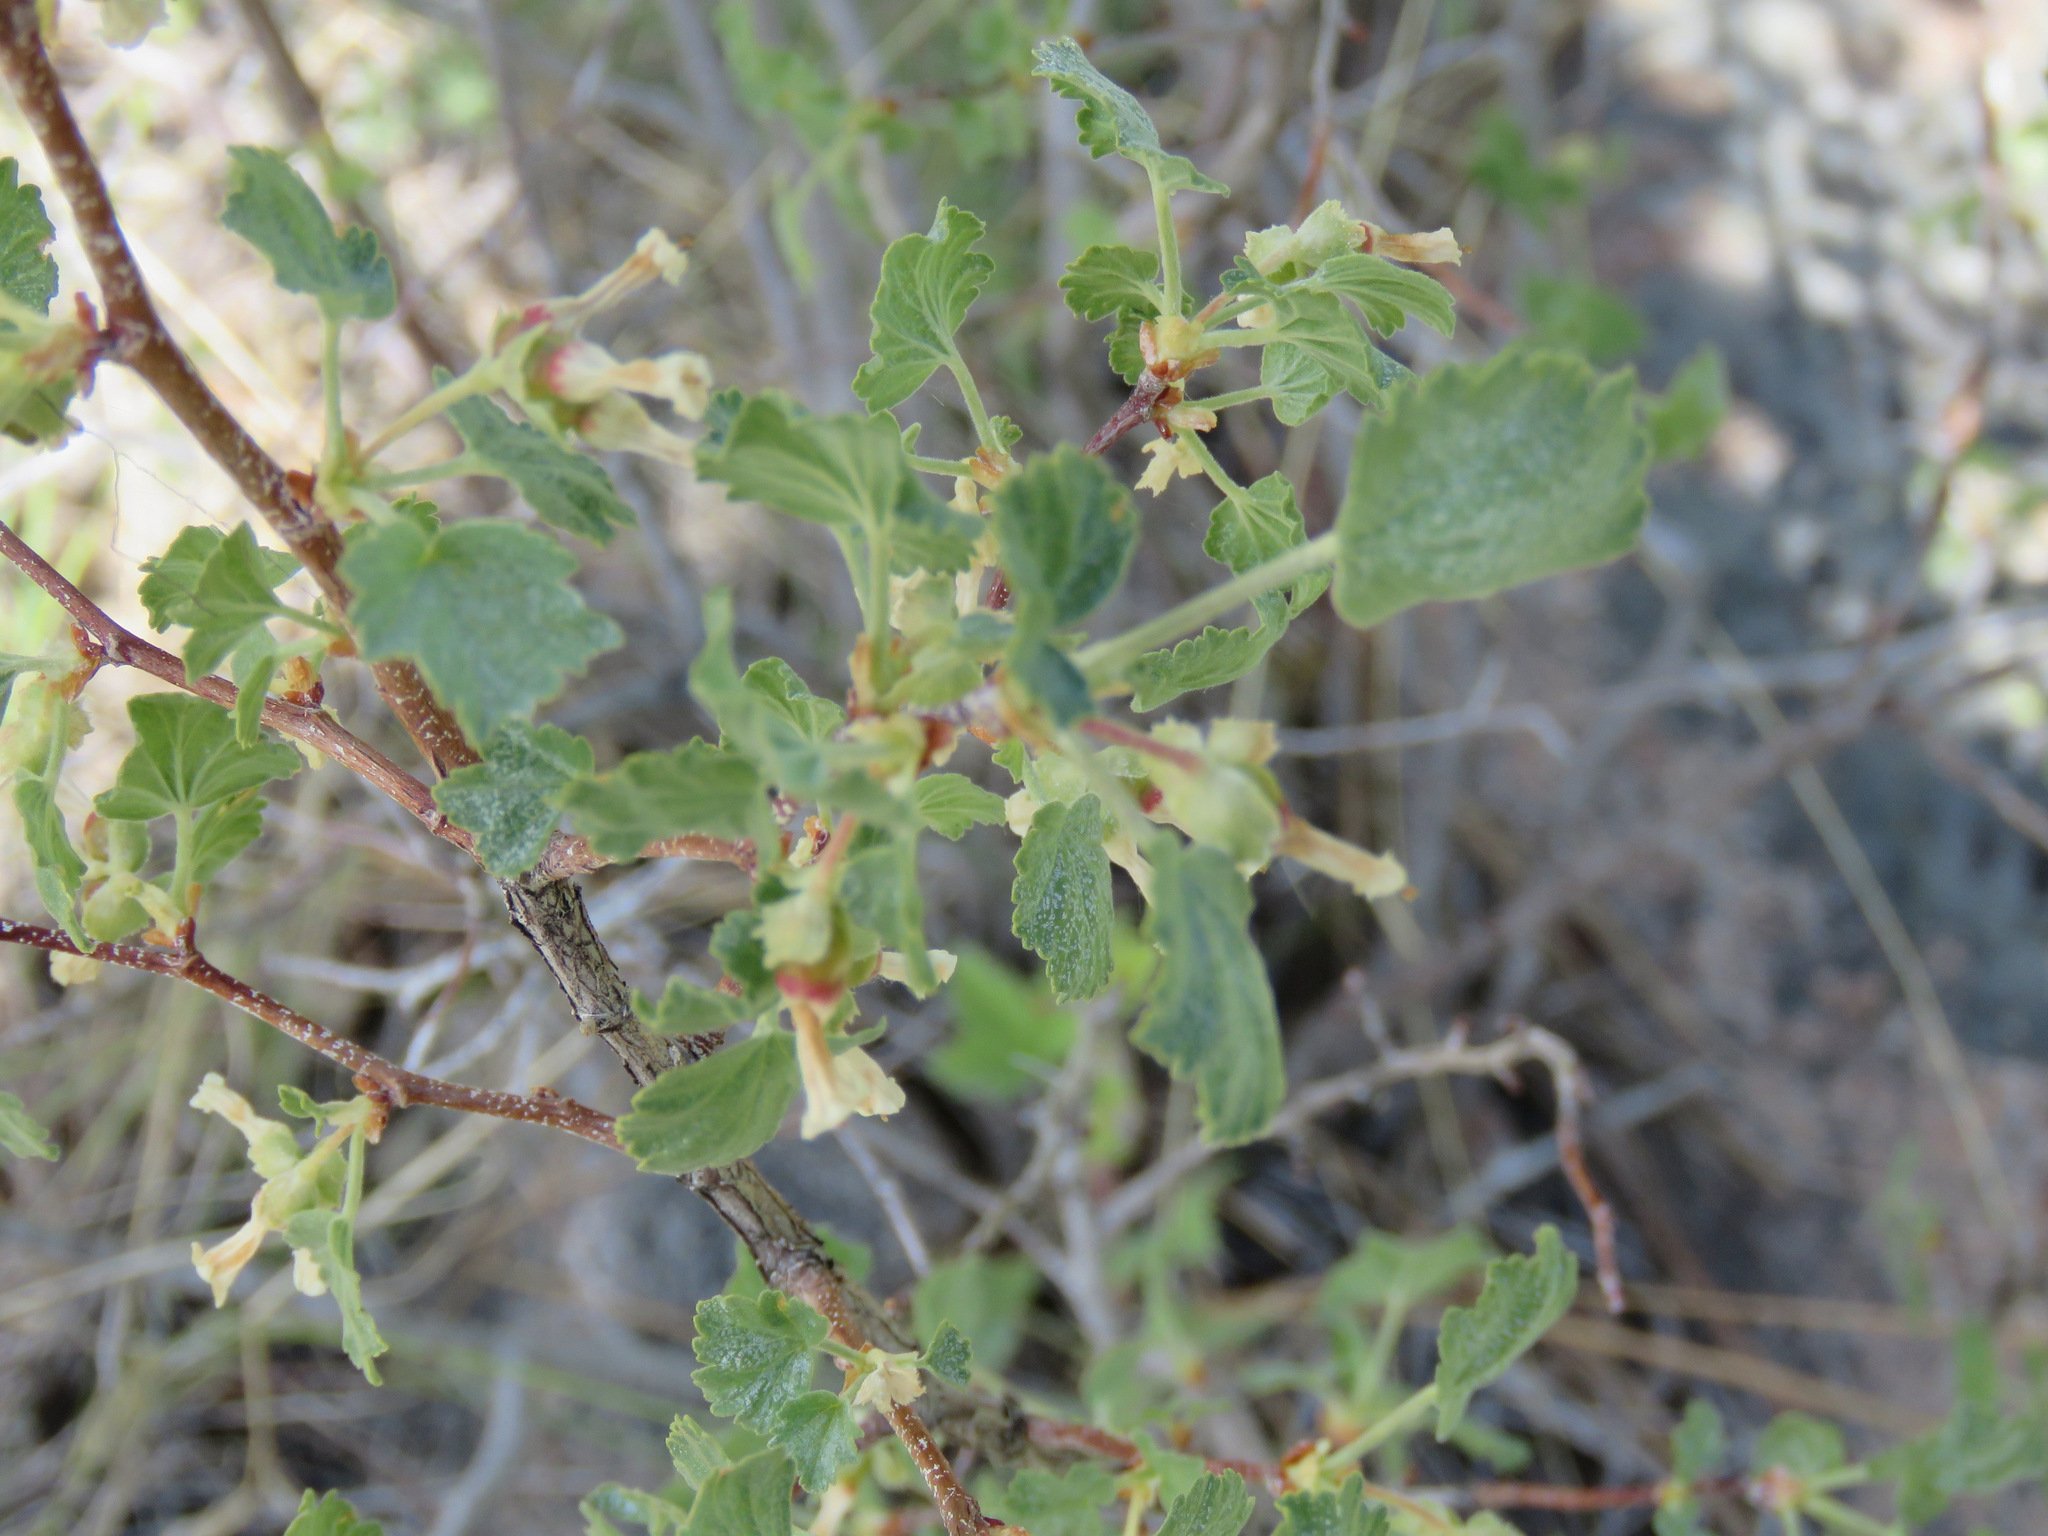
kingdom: Plantae
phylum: Tracheophyta
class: Magnoliopsida
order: Saxifragales
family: Grossulariaceae
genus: Ribes
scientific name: Ribes cereum
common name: Wax currant
